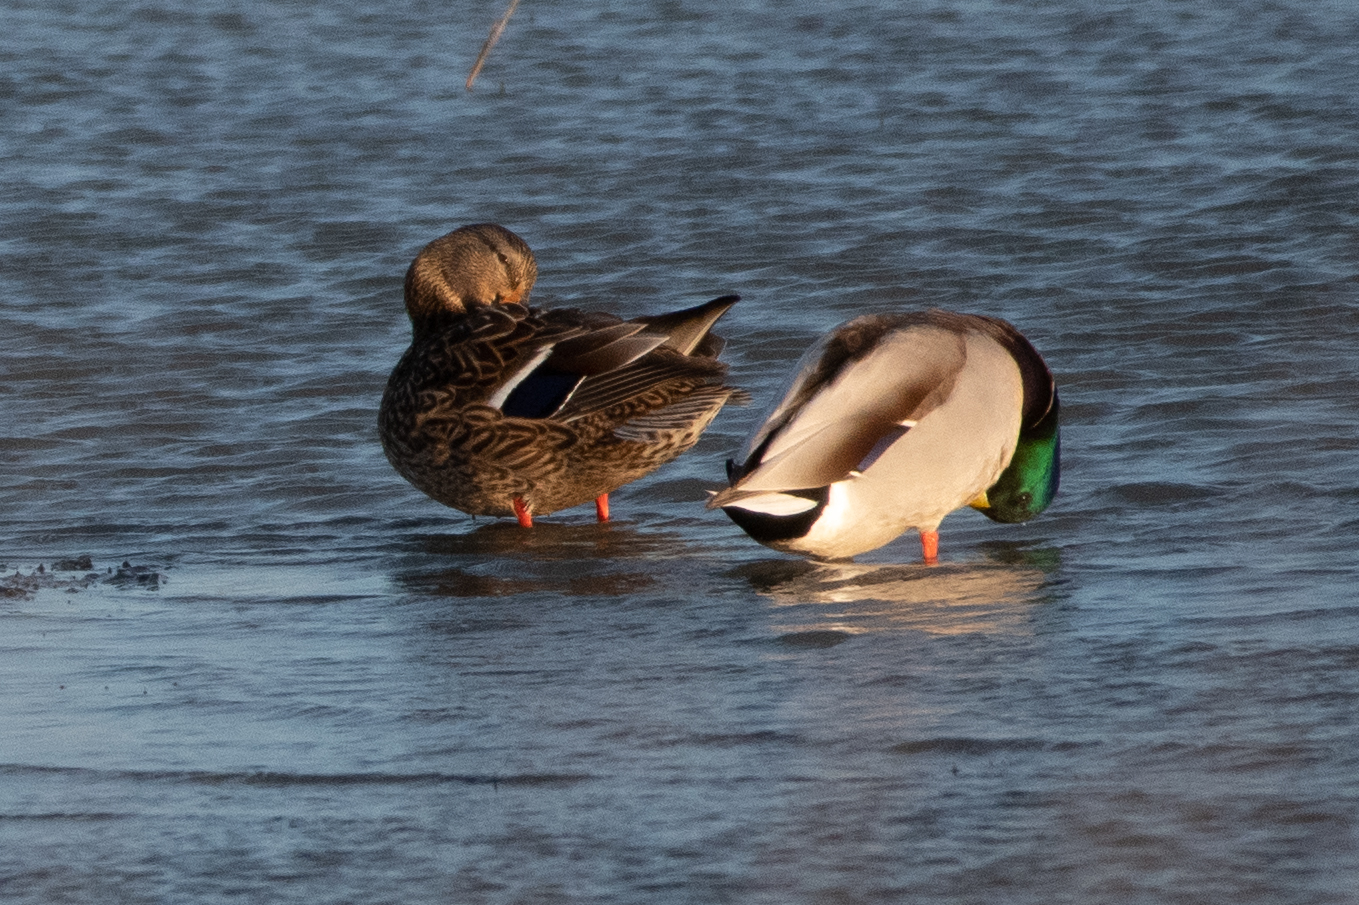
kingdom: Animalia
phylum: Chordata
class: Aves
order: Anseriformes
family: Anatidae
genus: Anas
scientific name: Anas platyrhynchos
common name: Mallard
